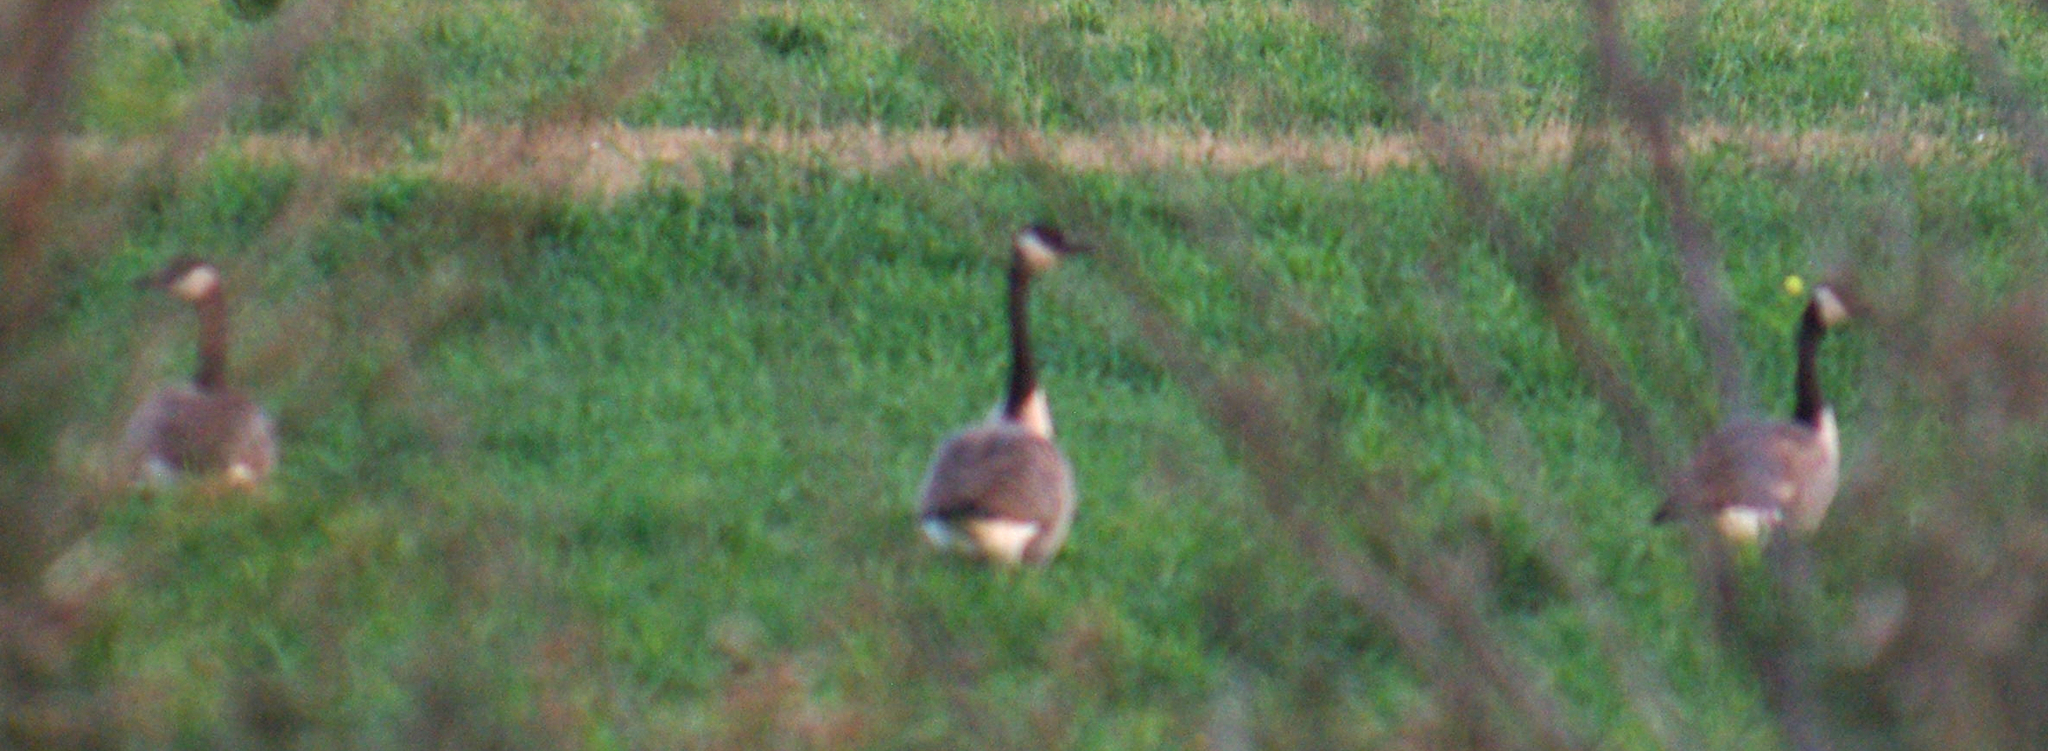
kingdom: Animalia
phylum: Chordata
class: Aves
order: Anseriformes
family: Anatidae
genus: Branta
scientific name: Branta canadensis
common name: Canada goose
